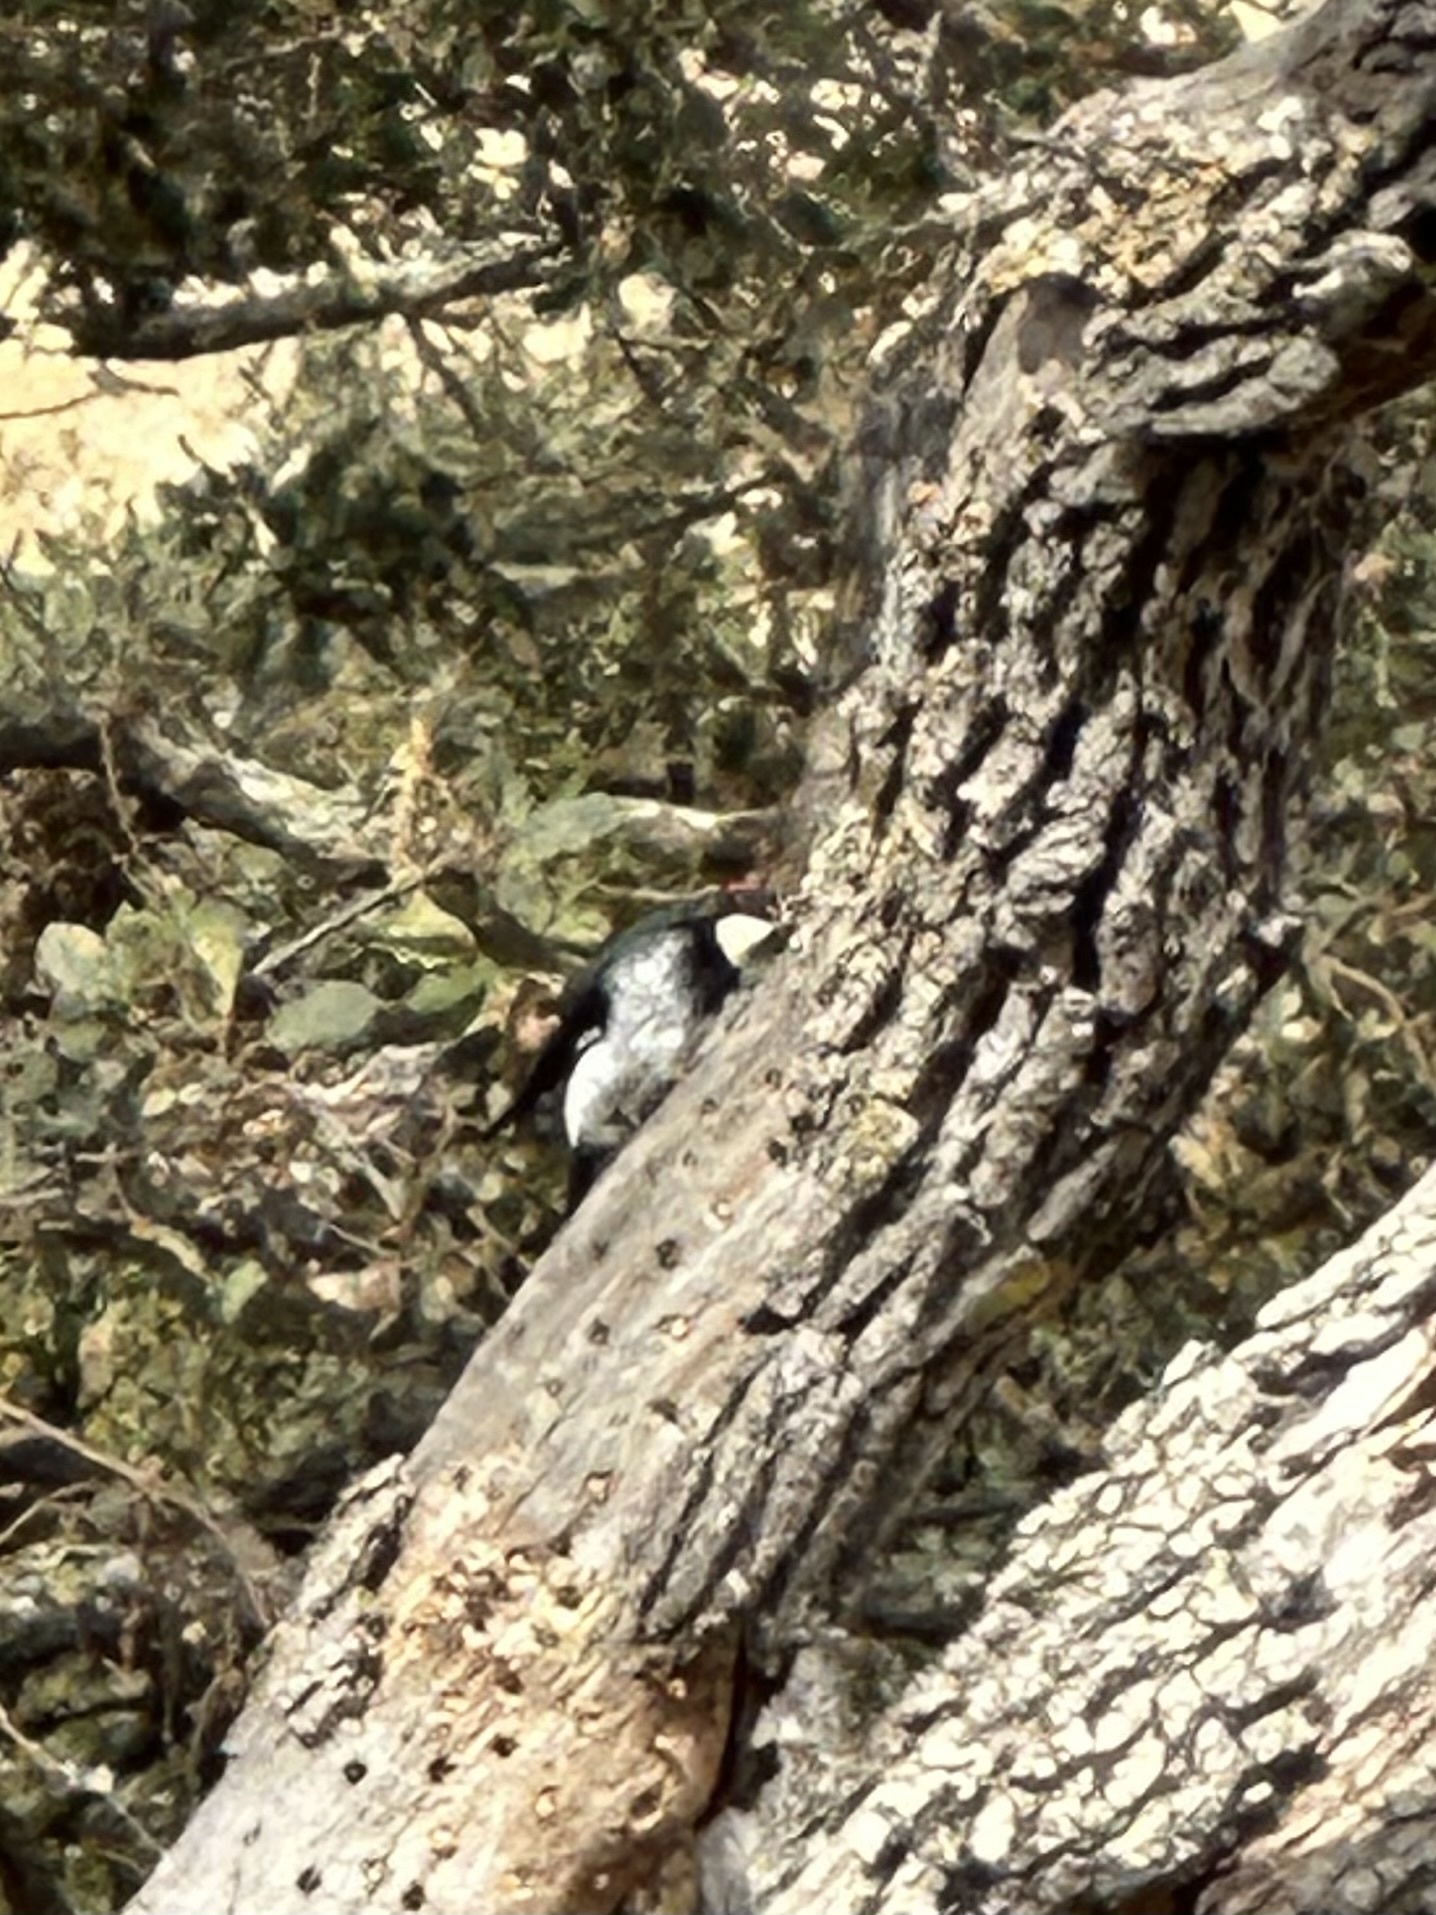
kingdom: Animalia
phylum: Chordata
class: Aves
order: Piciformes
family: Picidae
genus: Melanerpes
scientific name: Melanerpes formicivorus
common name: Acorn woodpecker
